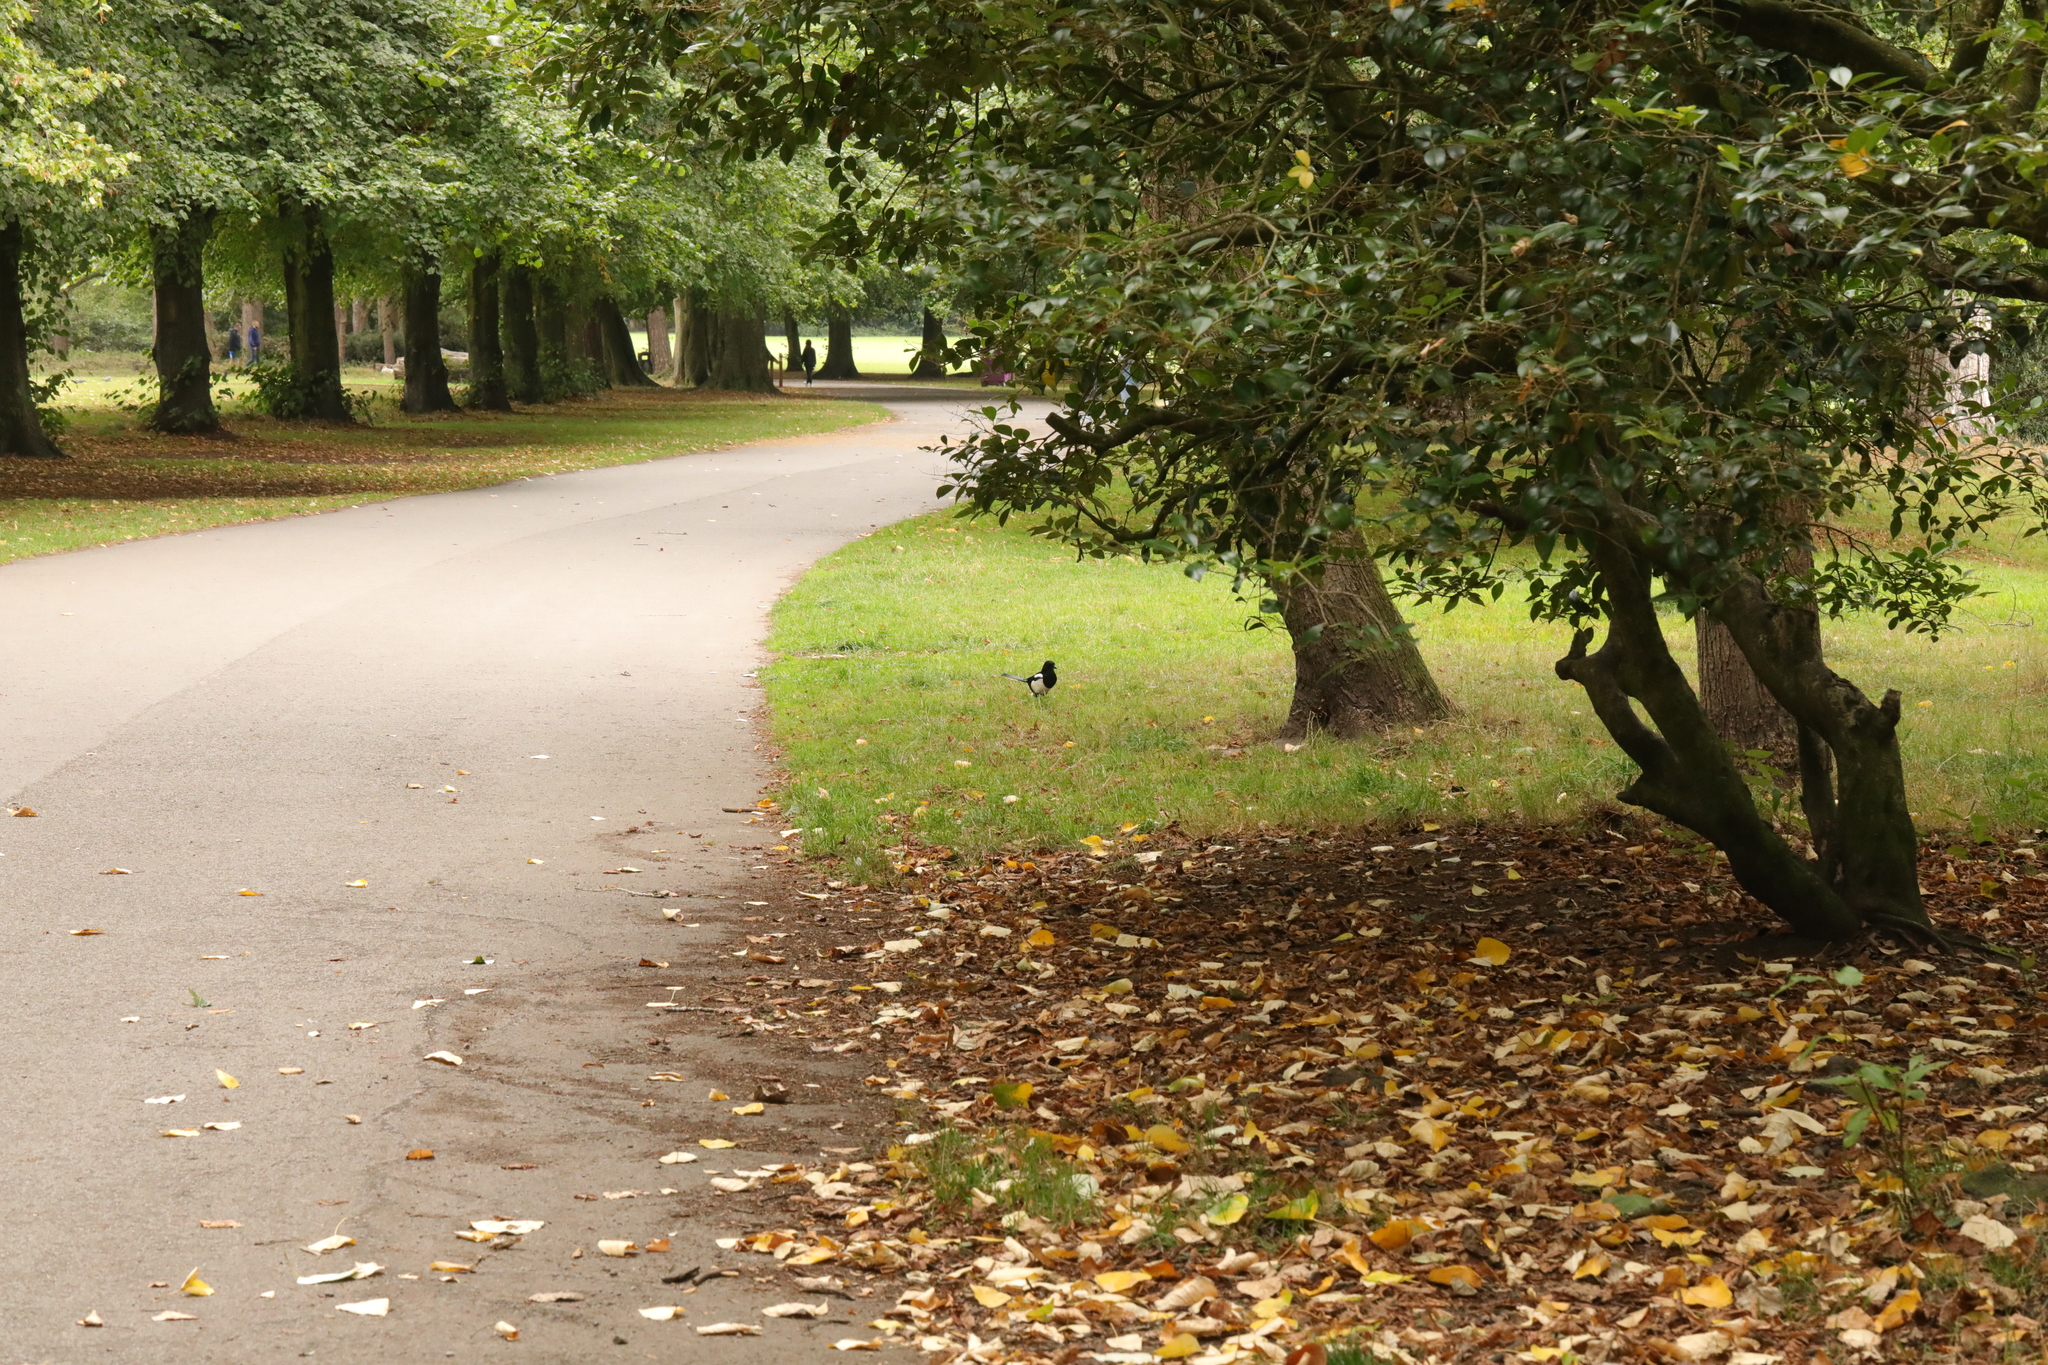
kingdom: Animalia
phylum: Chordata
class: Aves
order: Passeriformes
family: Corvidae
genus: Pica
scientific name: Pica pica
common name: Eurasian magpie
